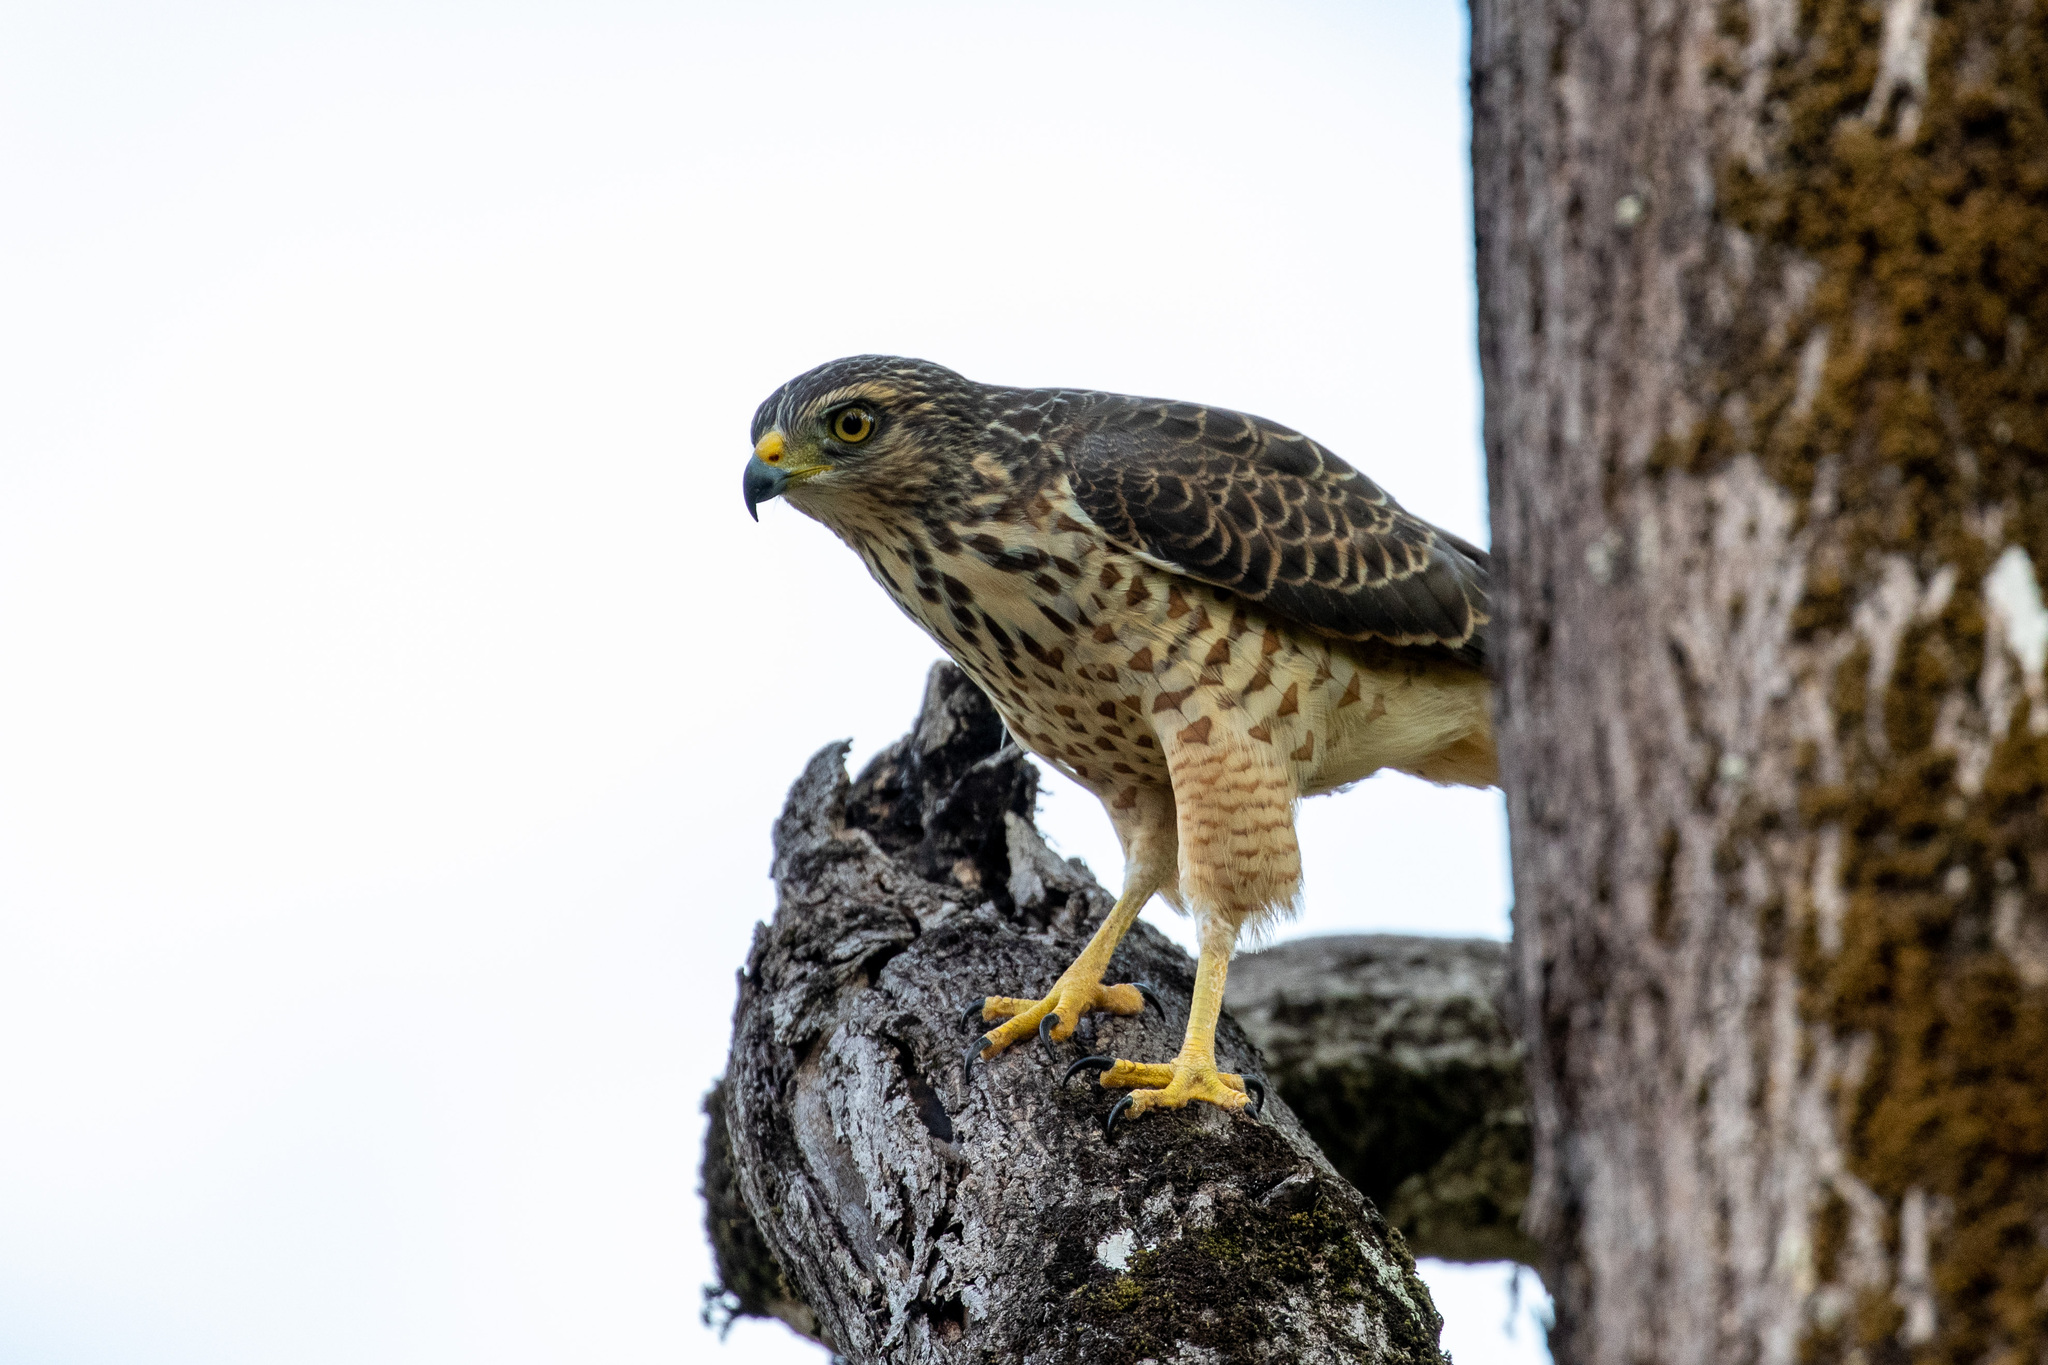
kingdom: Animalia
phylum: Chordata
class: Aves
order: Accipitriformes
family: Accipitridae
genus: Rupornis
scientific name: Rupornis magnirostris
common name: Roadside hawk
